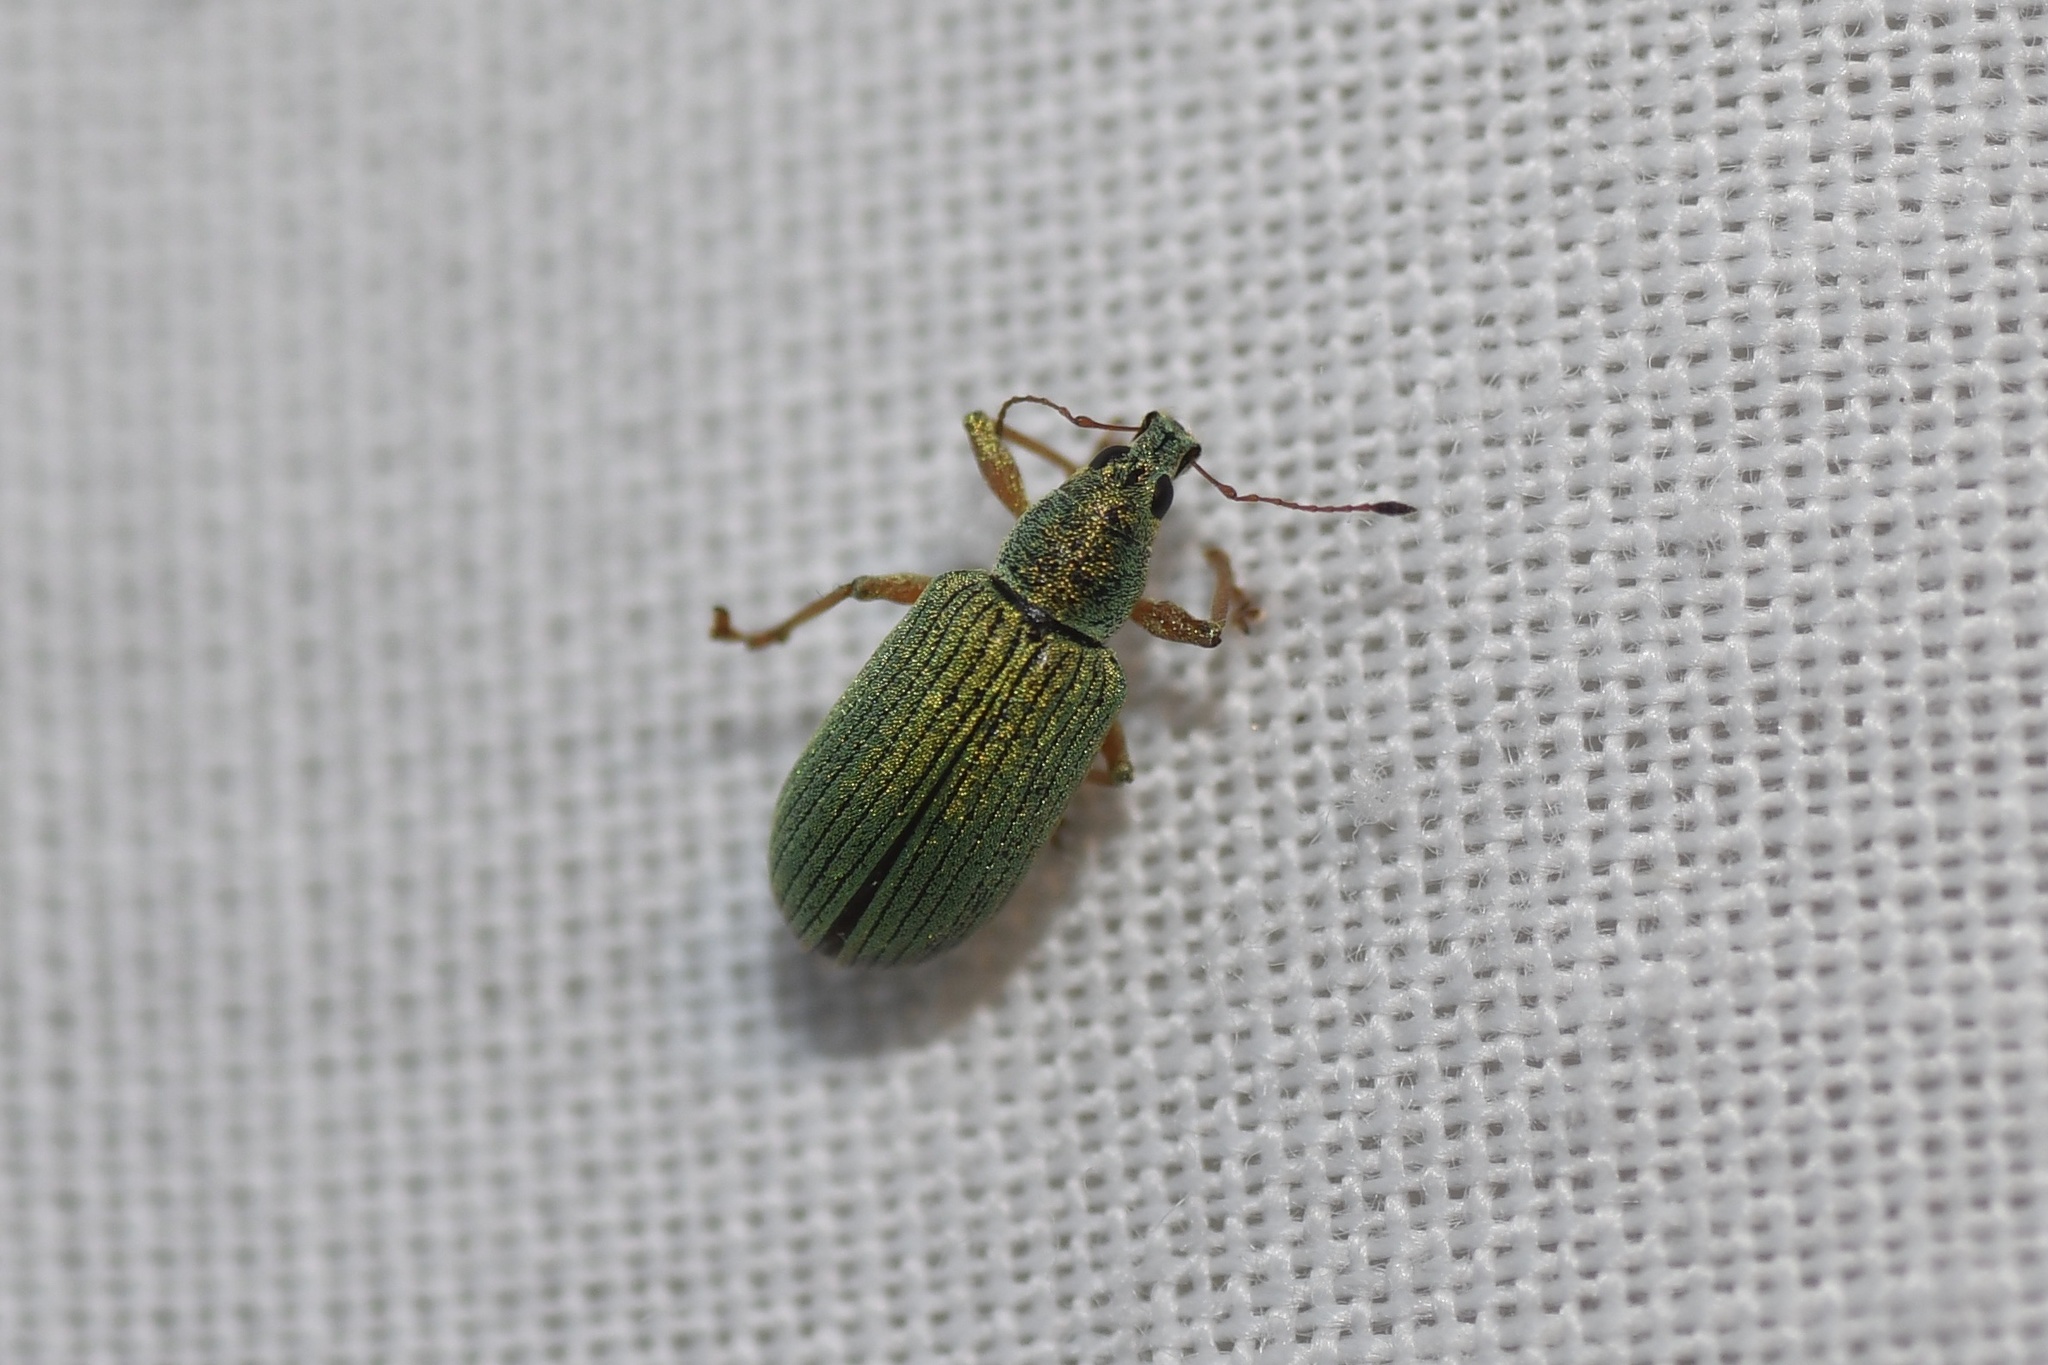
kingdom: Animalia
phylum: Arthropoda
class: Insecta
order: Coleoptera
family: Curculionidae
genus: Polydrusus
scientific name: Polydrusus formosus
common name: Weevil
